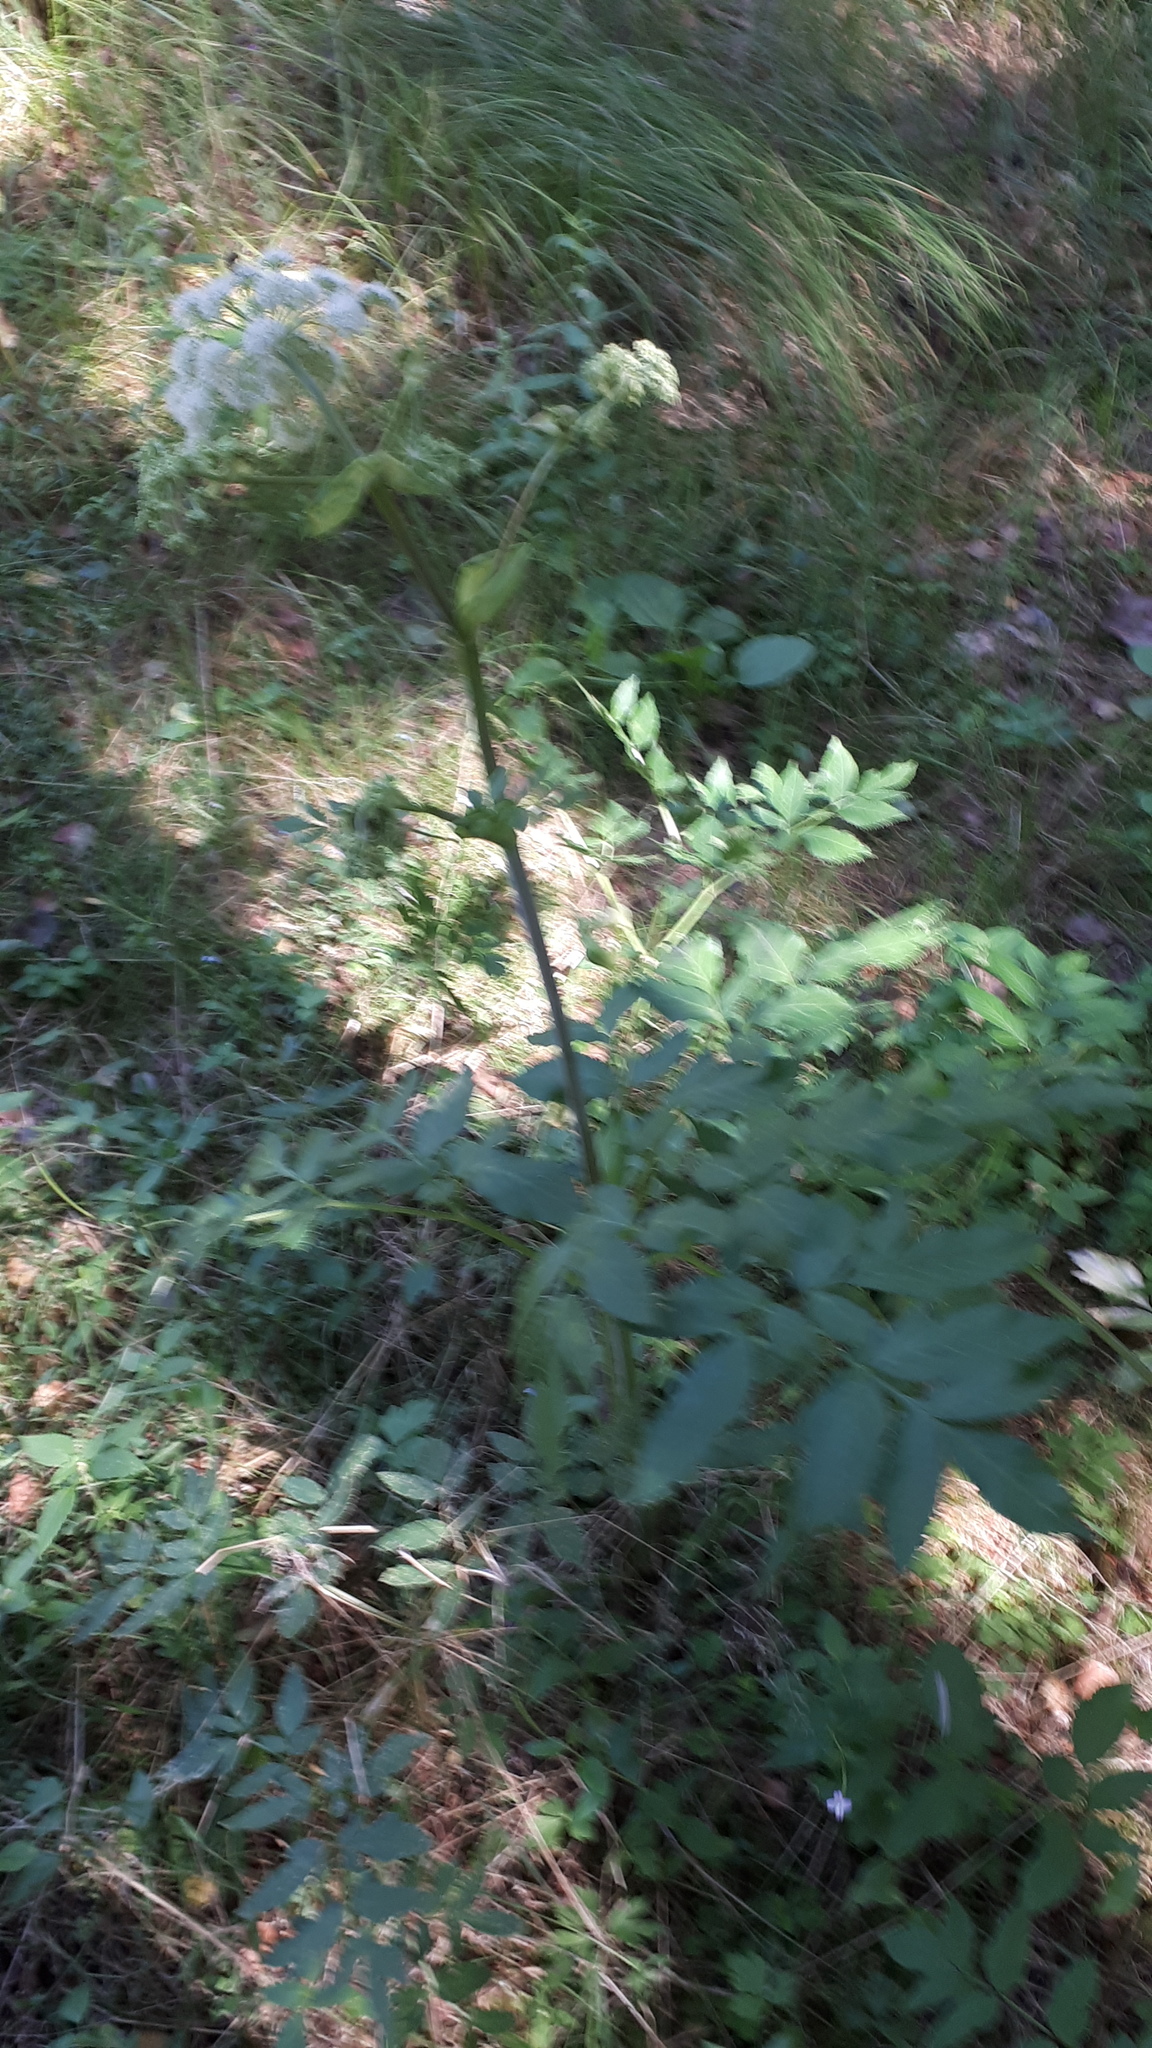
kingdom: Plantae
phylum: Tracheophyta
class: Magnoliopsida
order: Apiales
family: Apiaceae
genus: Angelica
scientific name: Angelica sylvestris
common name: Wild angelica
